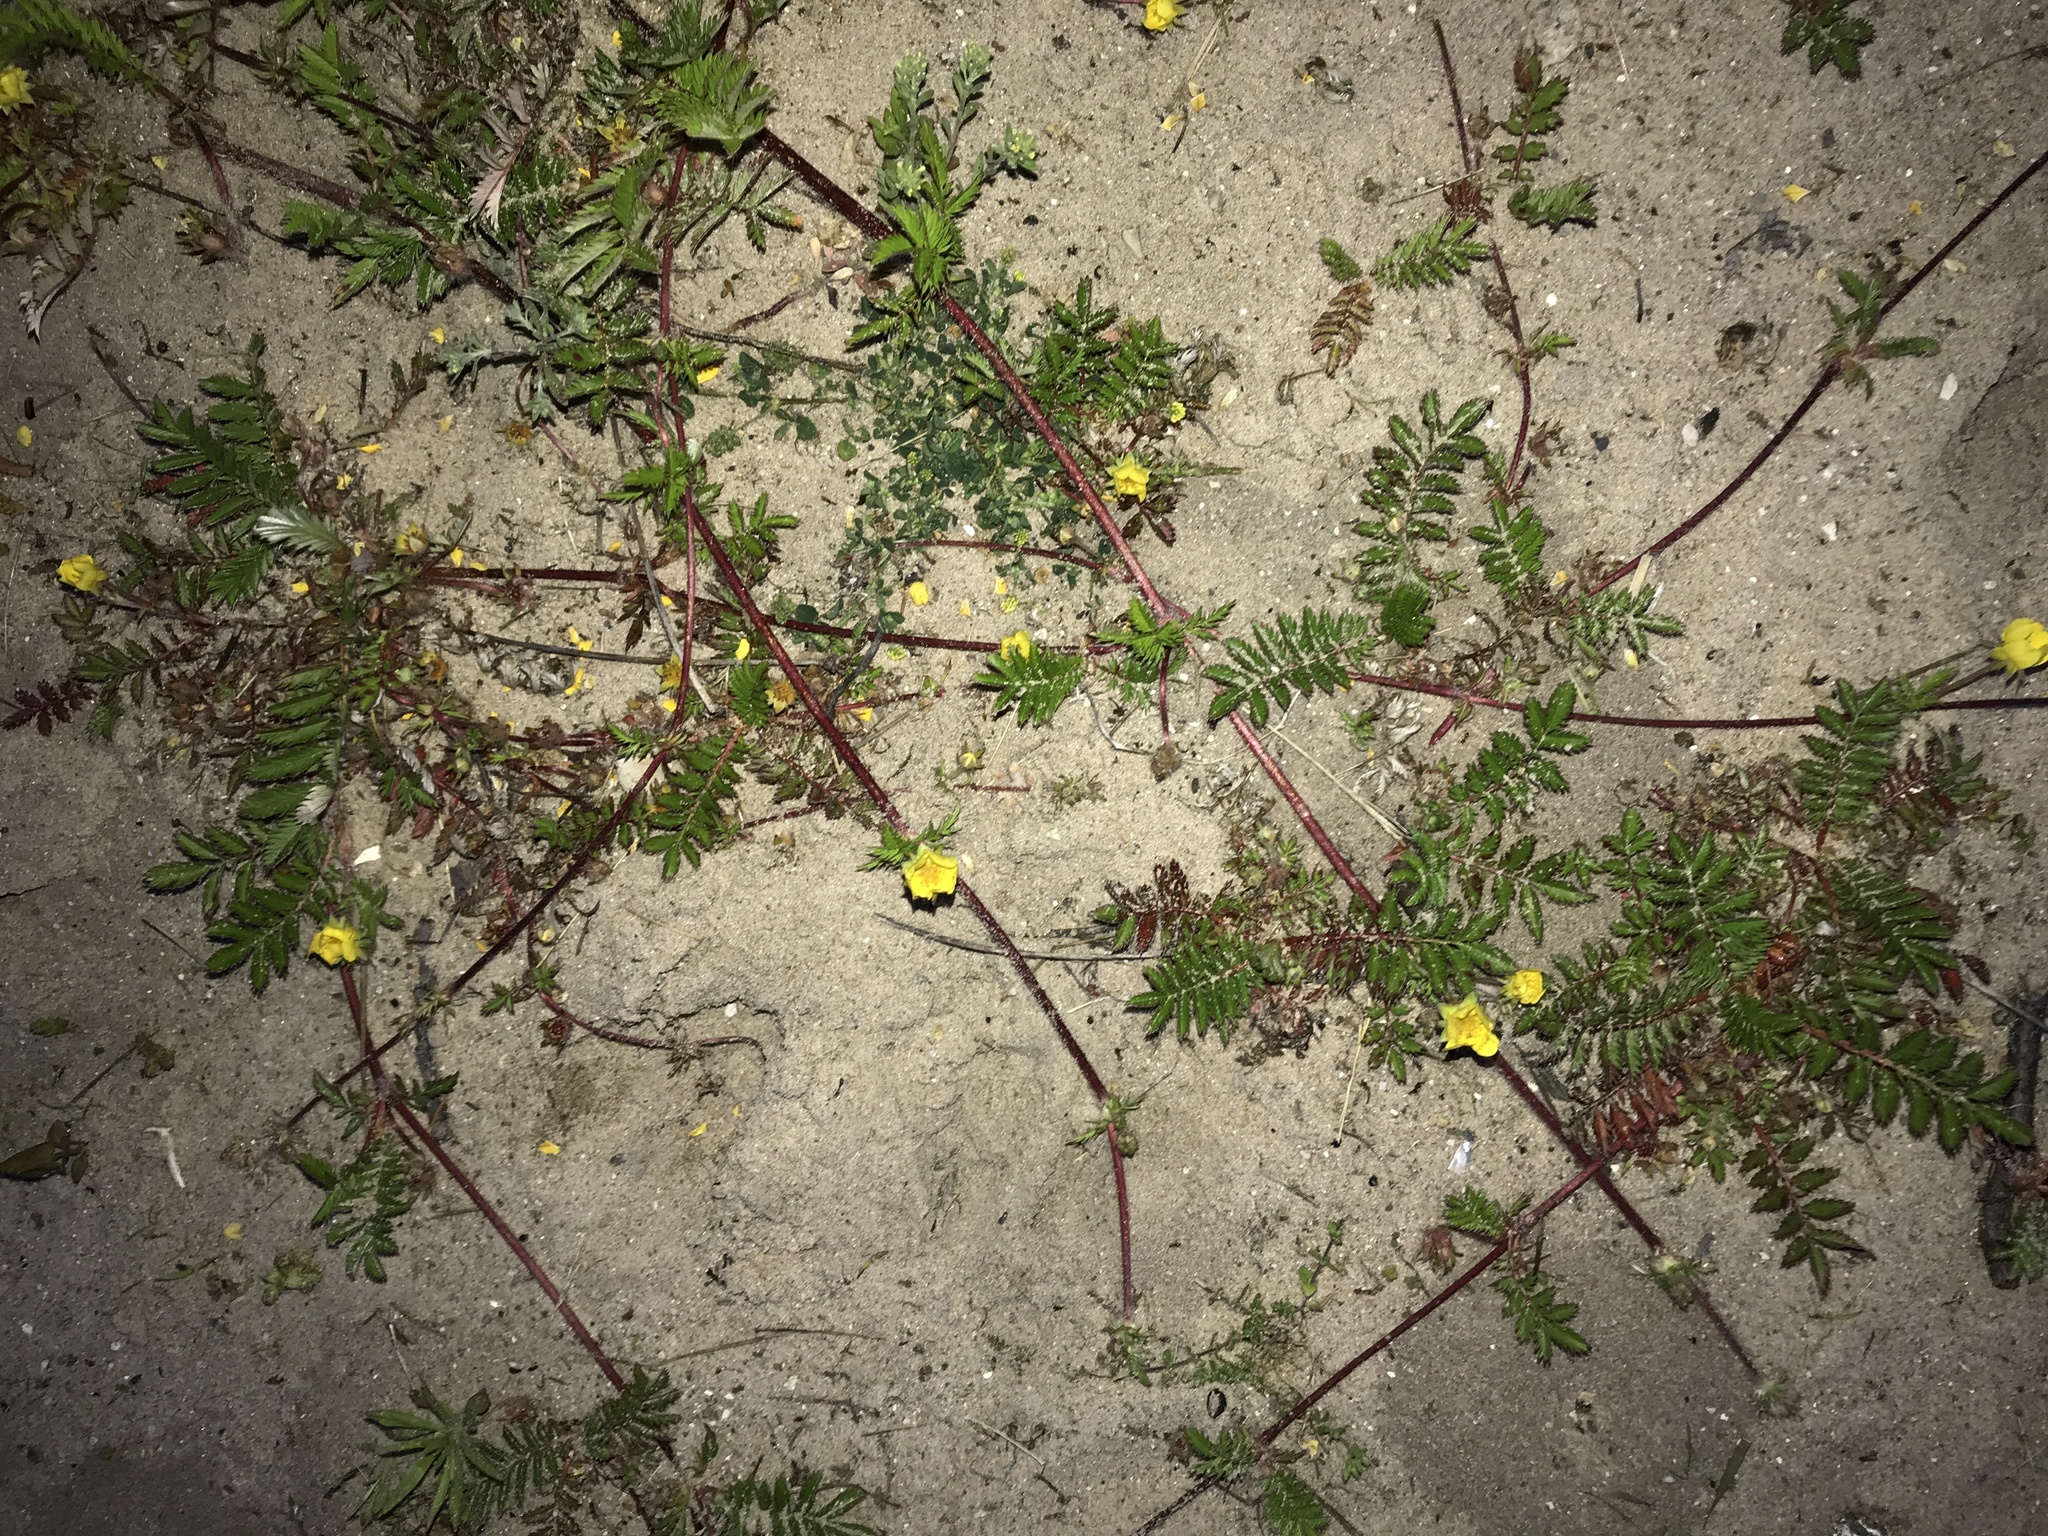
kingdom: Plantae
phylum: Tracheophyta
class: Magnoliopsida
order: Rosales
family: Rosaceae
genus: Argentina
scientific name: Argentina anserina
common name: Common silverweed
